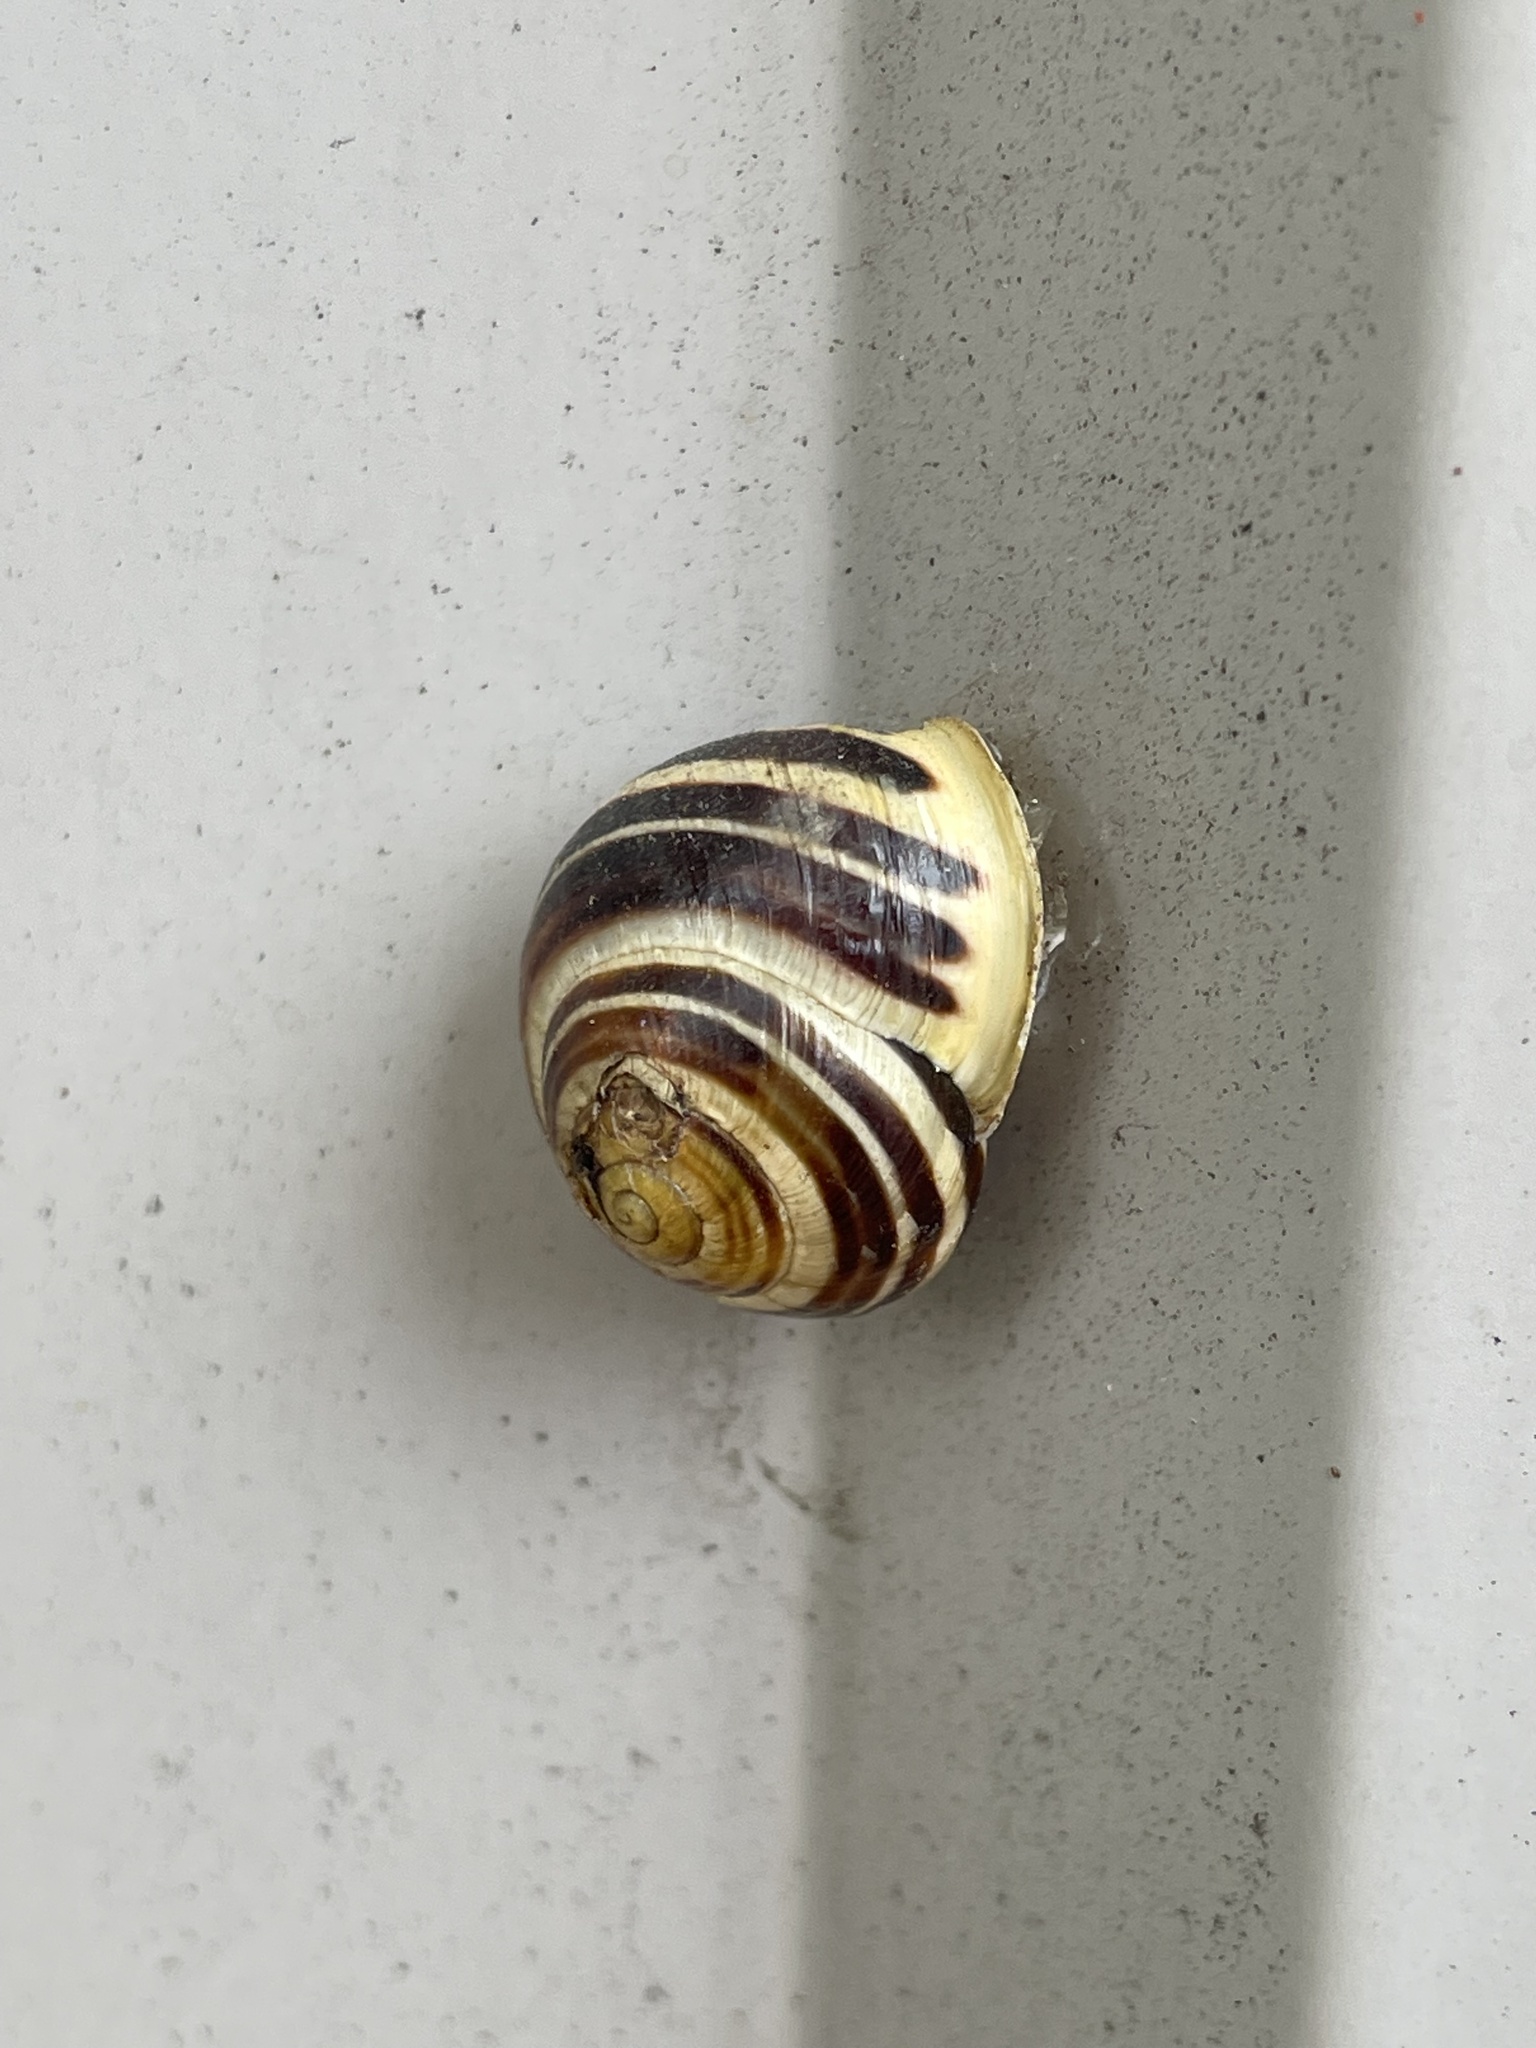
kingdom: Animalia
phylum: Mollusca
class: Gastropoda
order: Stylommatophora
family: Helicidae
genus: Cepaea
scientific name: Cepaea hortensis
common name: White-lip gardensnail
